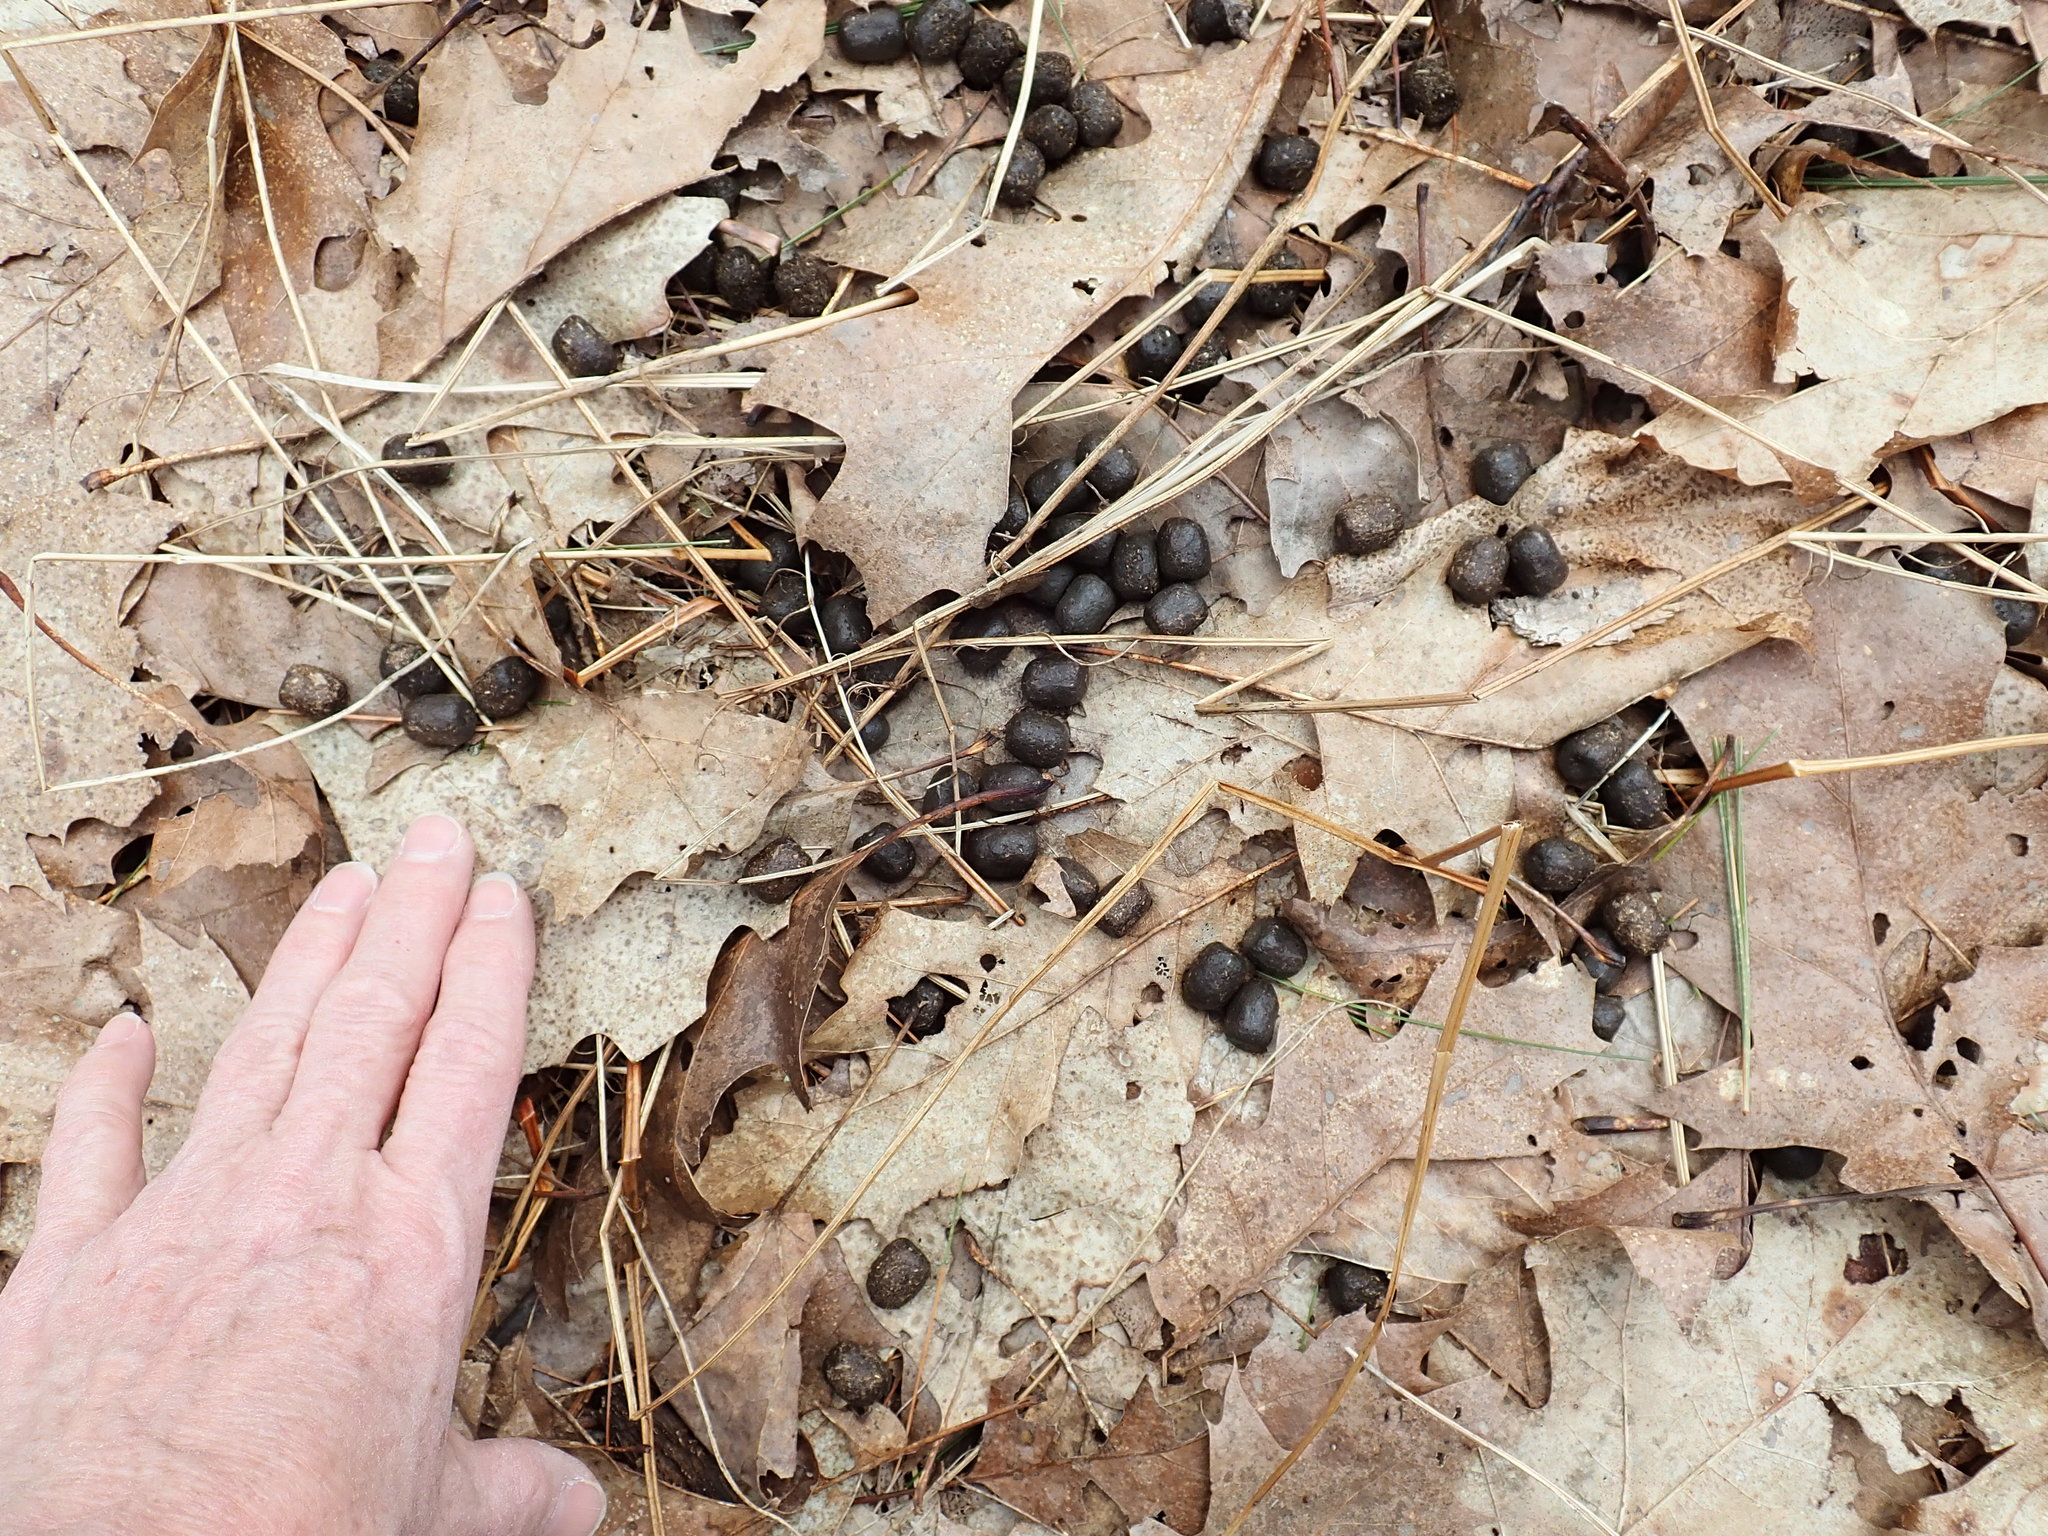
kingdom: Animalia
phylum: Chordata
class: Mammalia
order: Artiodactyla
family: Cervidae
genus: Odocoileus
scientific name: Odocoileus virginianus
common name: White-tailed deer
